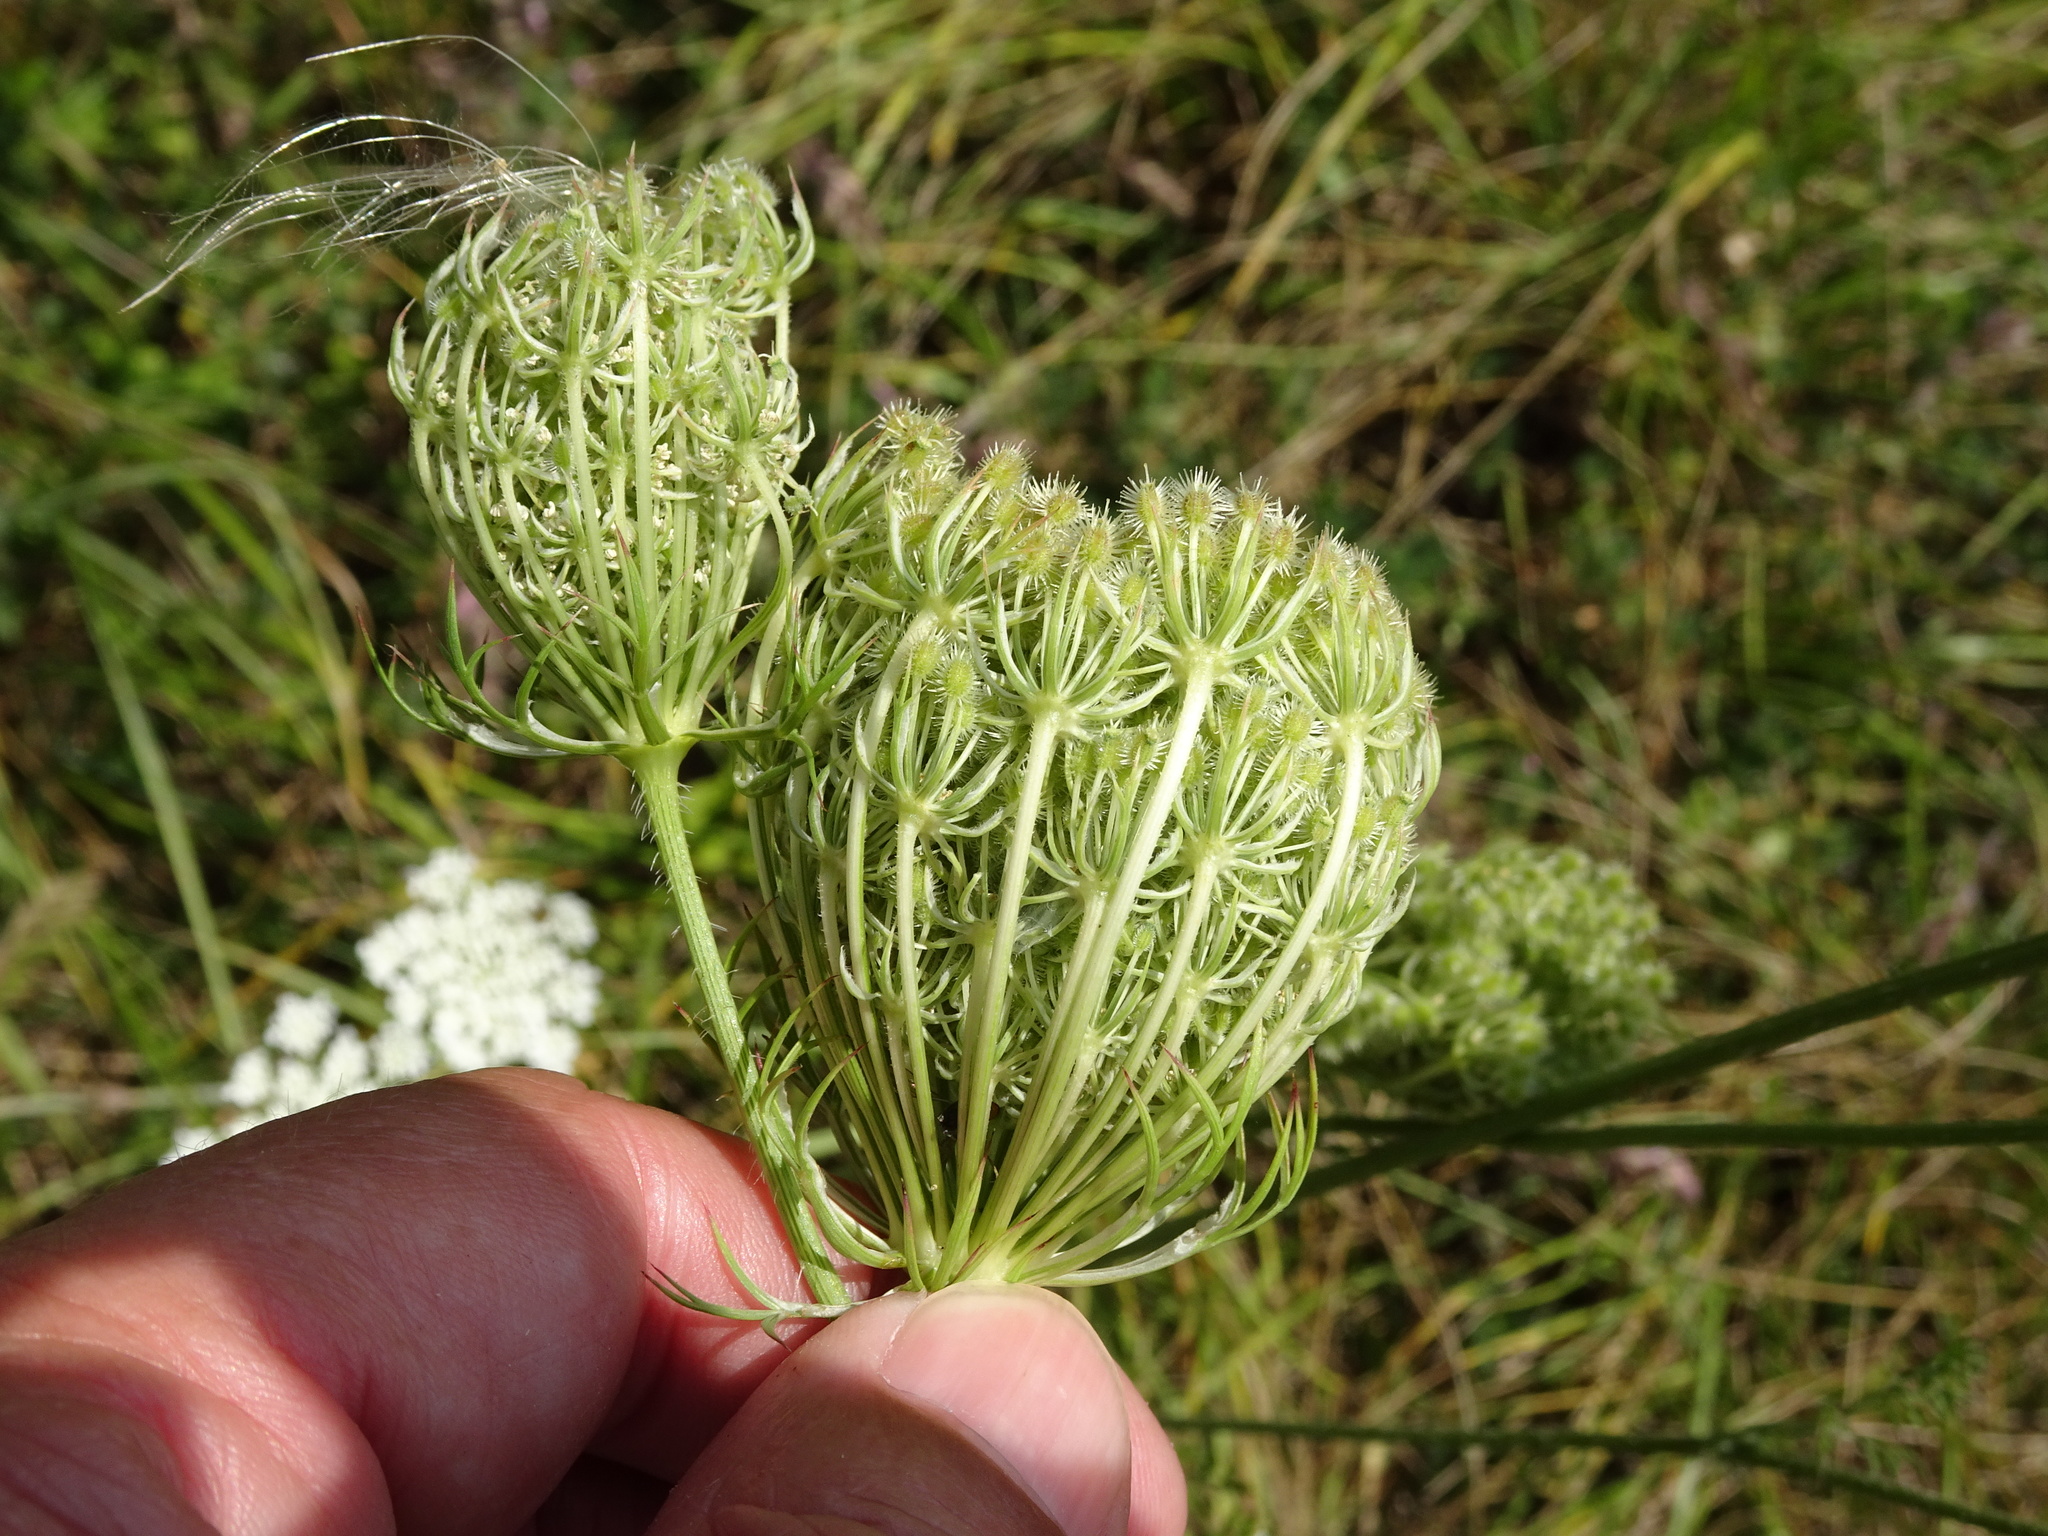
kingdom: Plantae
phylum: Tracheophyta
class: Magnoliopsida
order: Apiales
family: Apiaceae
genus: Daucus
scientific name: Daucus carota
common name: Wild carrot
